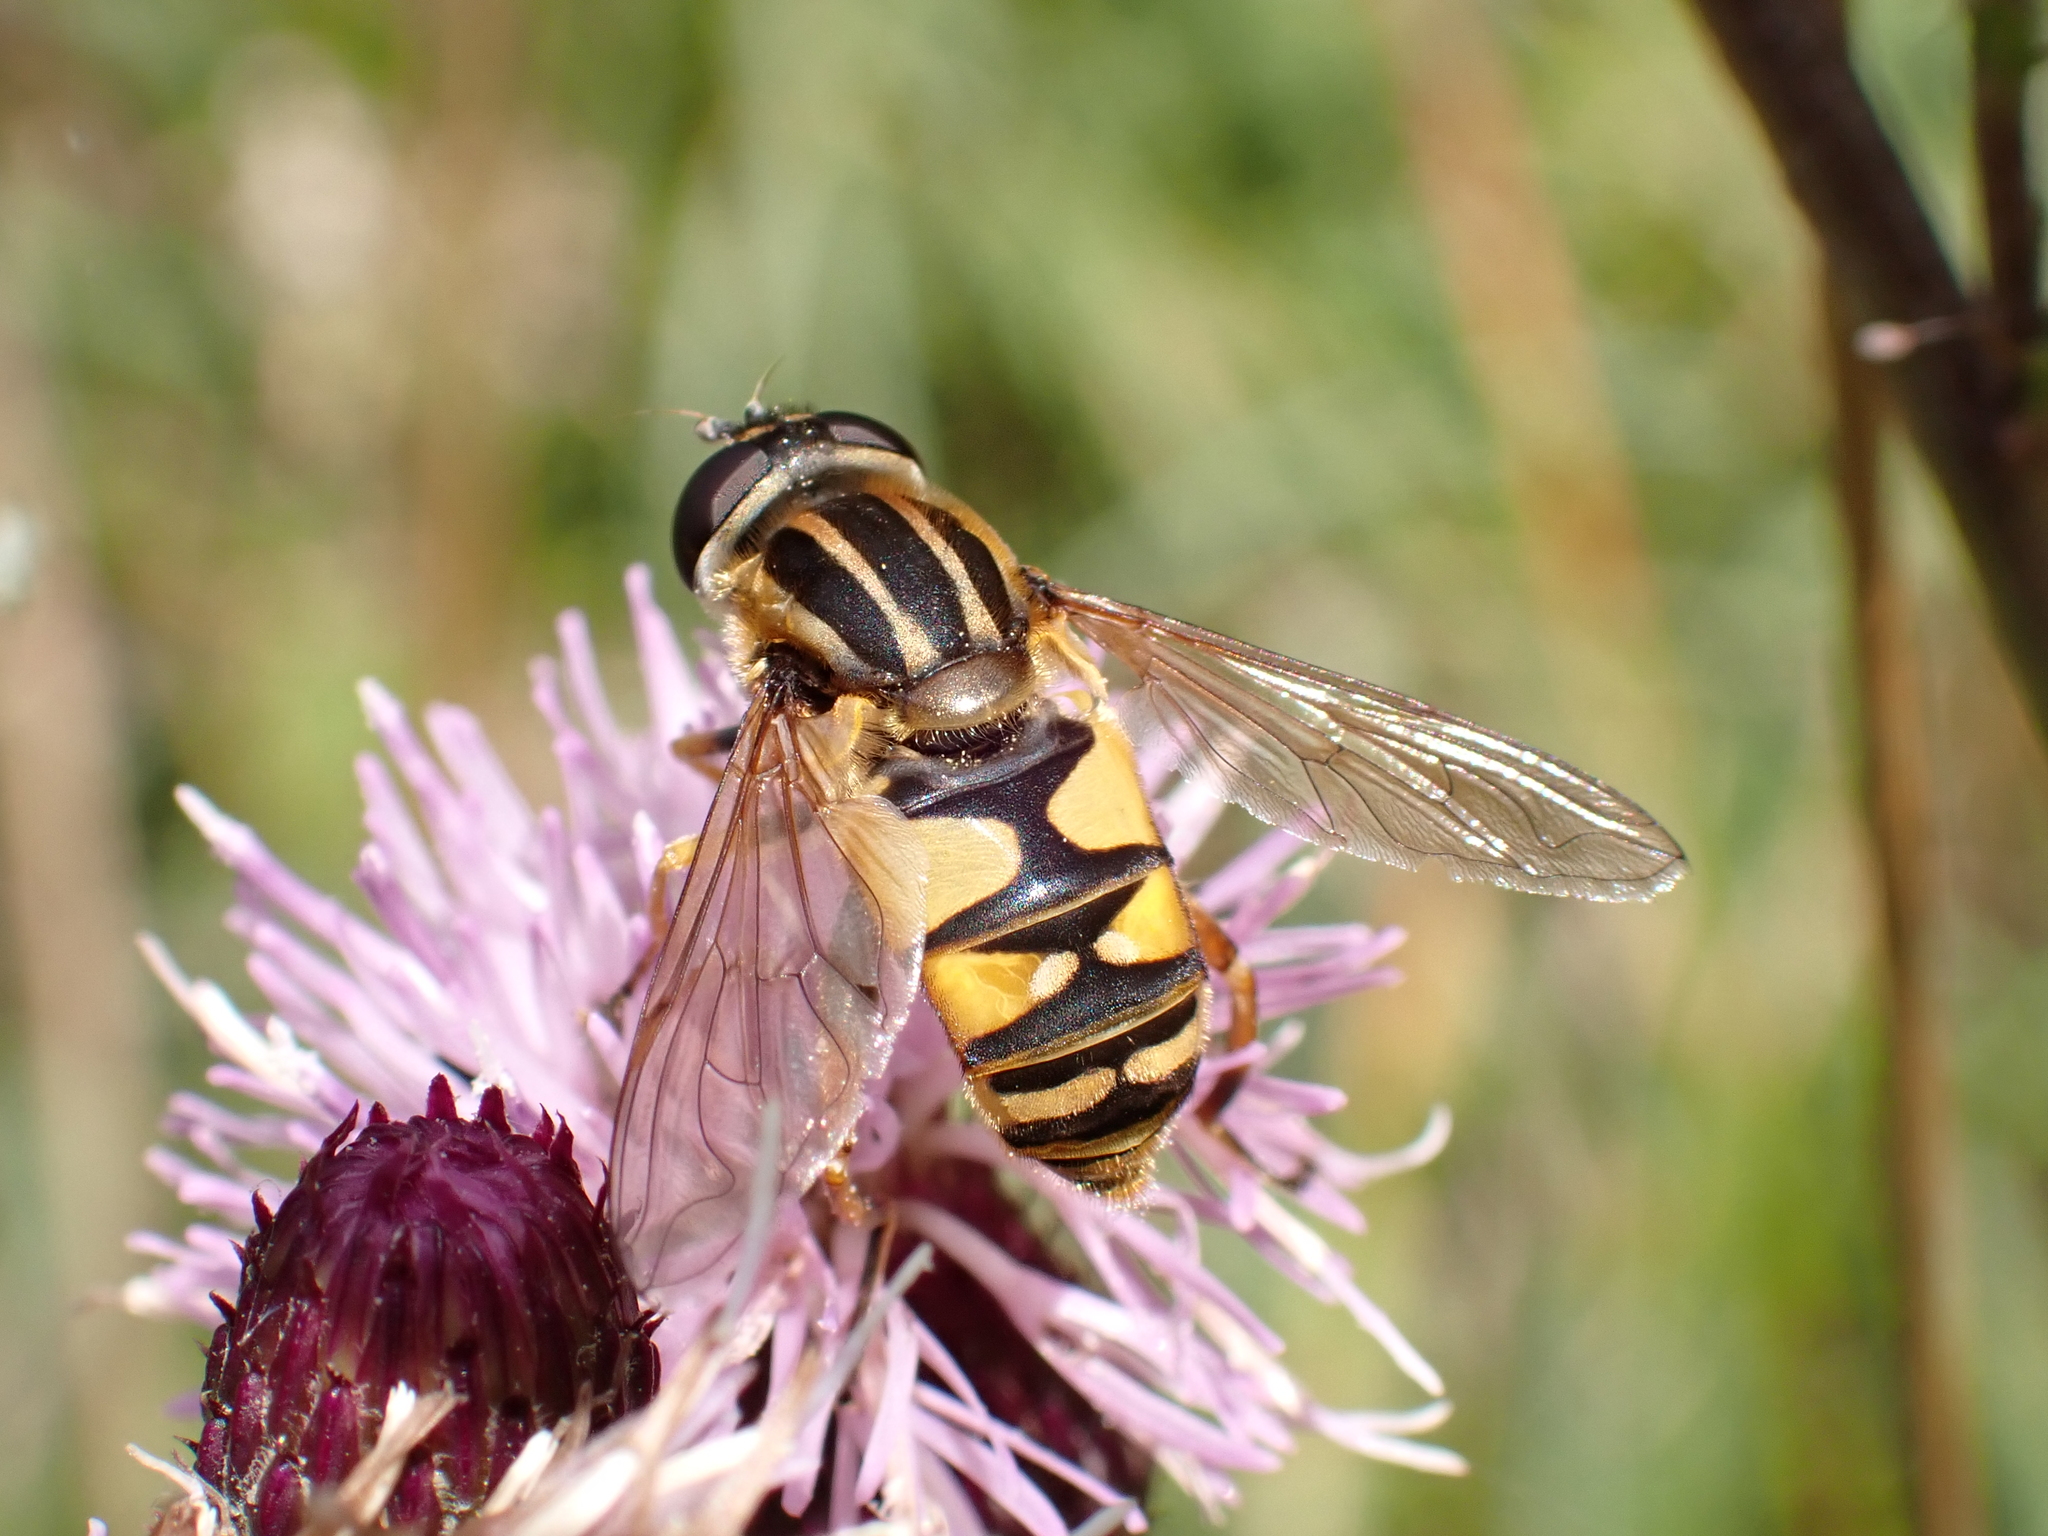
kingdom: Animalia
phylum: Arthropoda
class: Insecta
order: Diptera
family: Syrphidae
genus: Helophilus
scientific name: Helophilus pendulus
